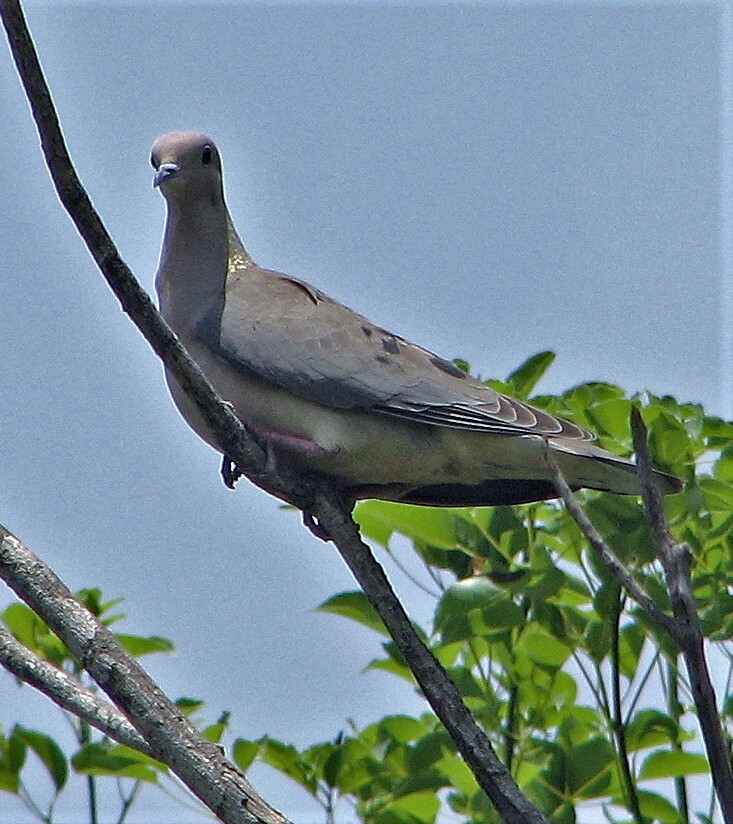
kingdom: Animalia
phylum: Chordata
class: Aves
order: Columbiformes
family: Columbidae
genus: Zenaida
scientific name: Zenaida auriculata
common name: Eared dove
